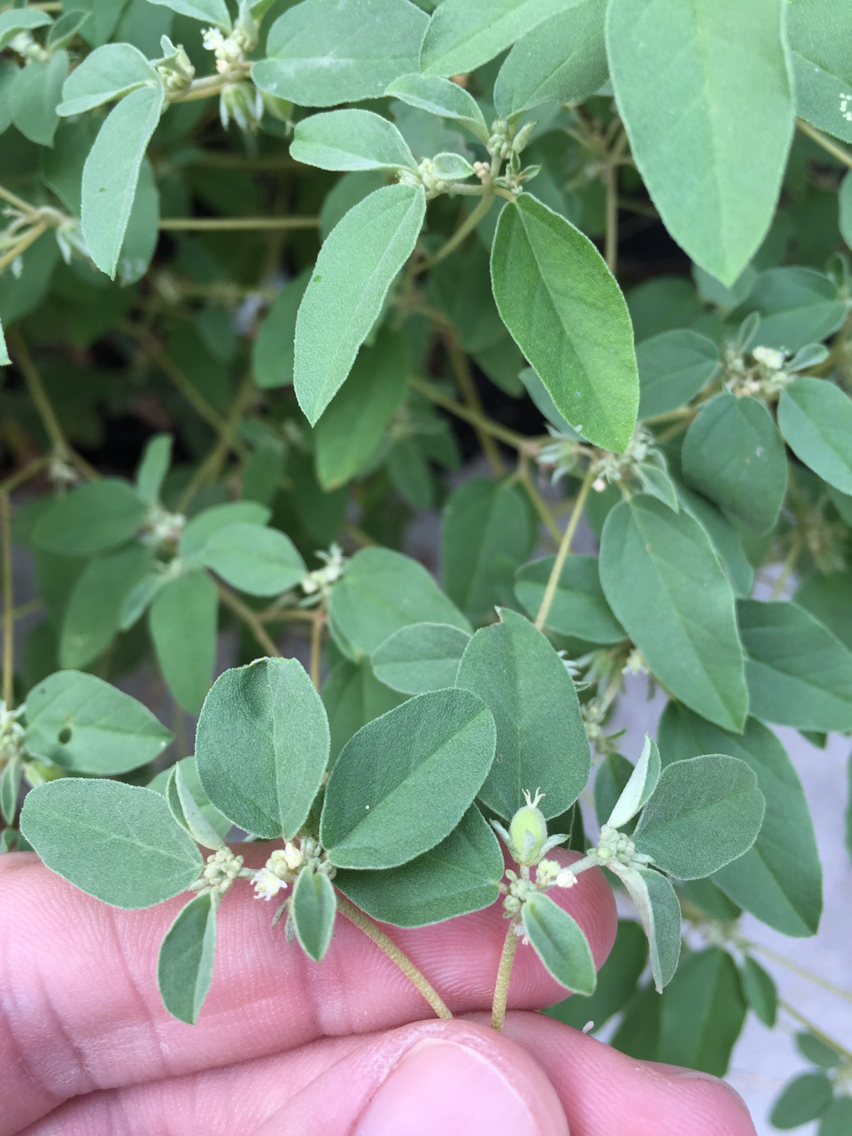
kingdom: Plantae
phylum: Tracheophyta
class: Magnoliopsida
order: Malpighiales
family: Euphorbiaceae
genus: Croton
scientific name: Croton monanthogynus
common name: One-seed croton
